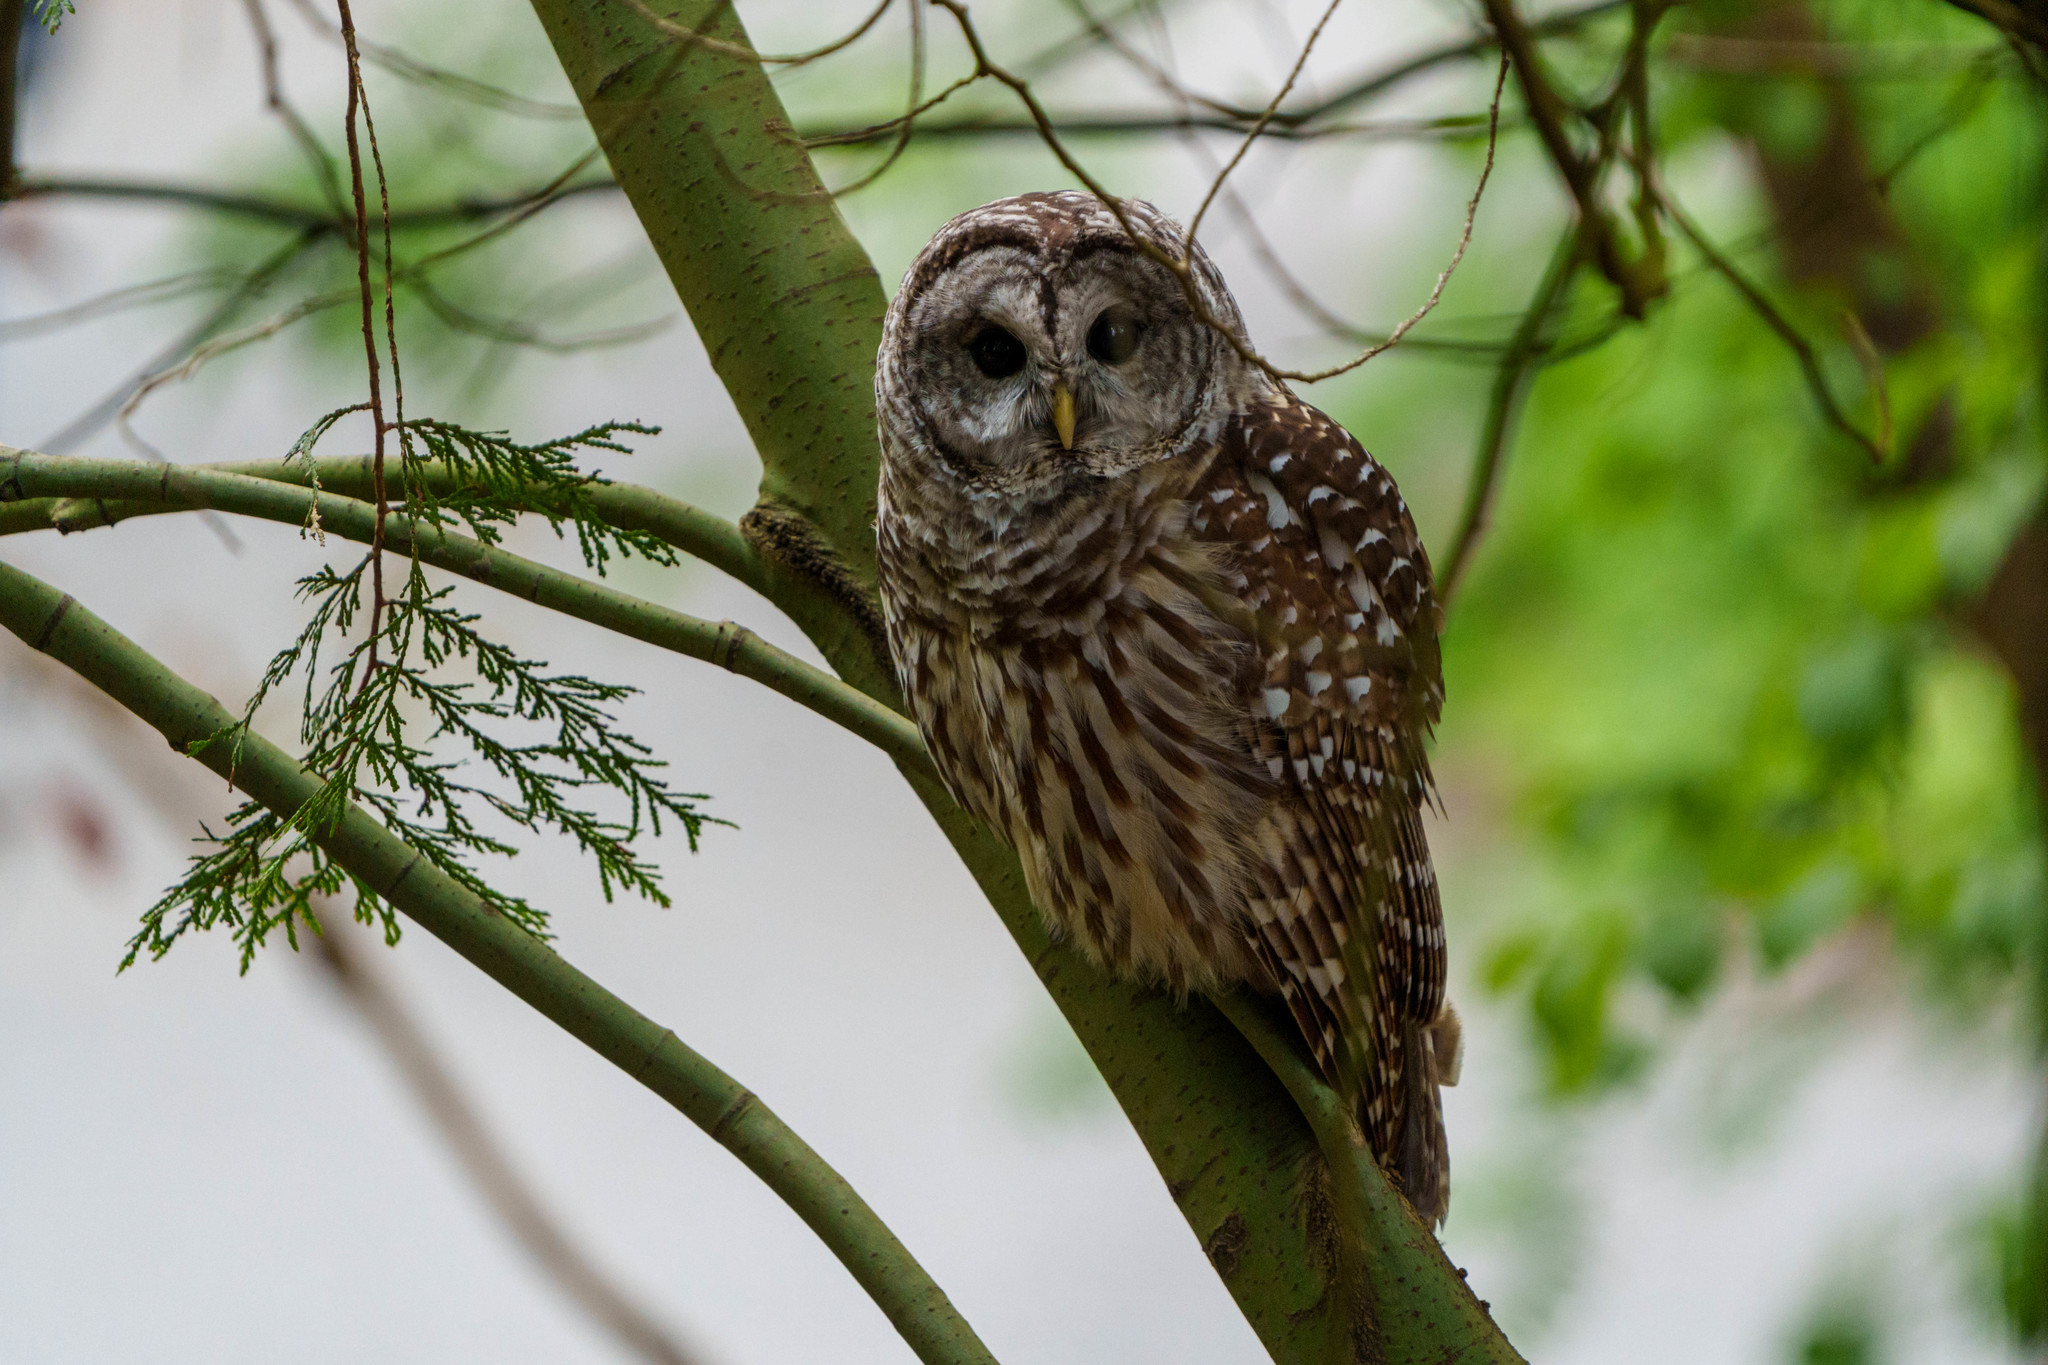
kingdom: Animalia
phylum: Chordata
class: Aves
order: Strigiformes
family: Strigidae
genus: Strix
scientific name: Strix varia
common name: Barred owl
